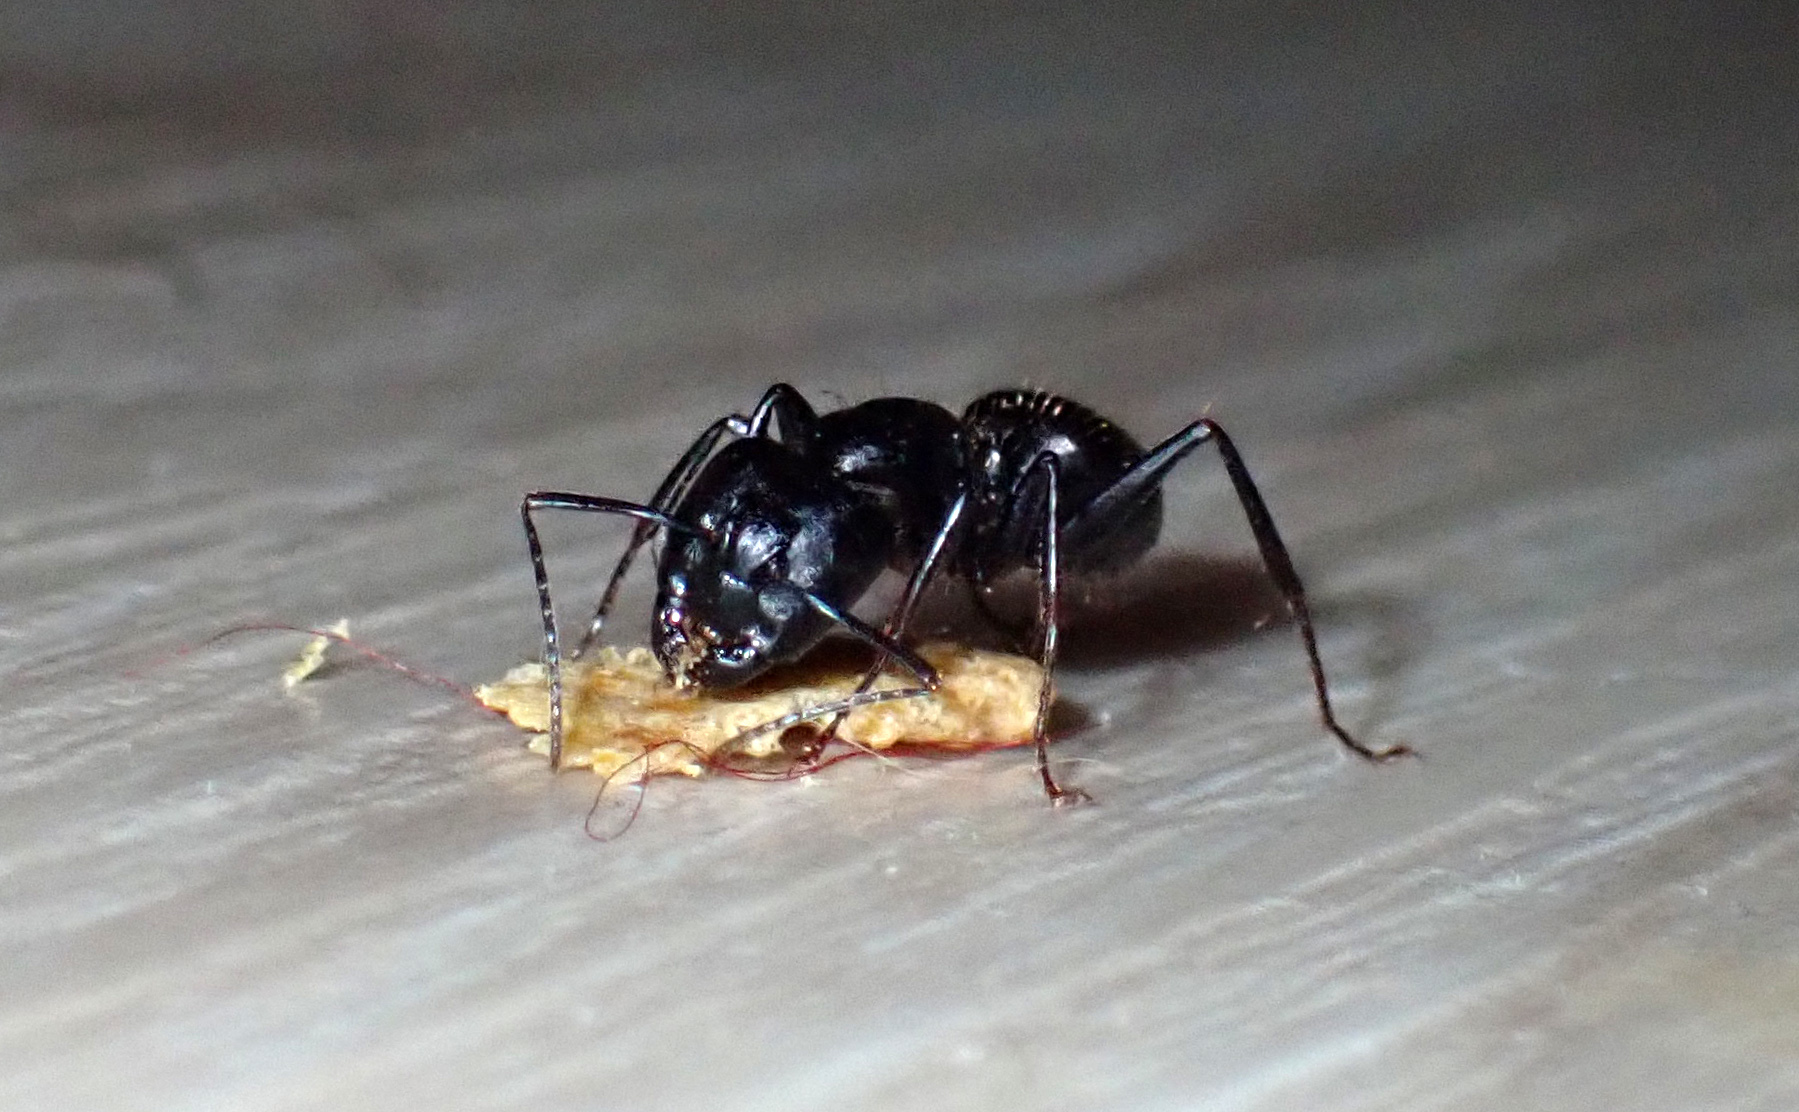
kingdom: Animalia
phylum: Arthropoda
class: Insecta
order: Hymenoptera
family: Formicidae
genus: Camponotus
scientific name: Camponotus pennsylvanicus
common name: Black carpenter ant
